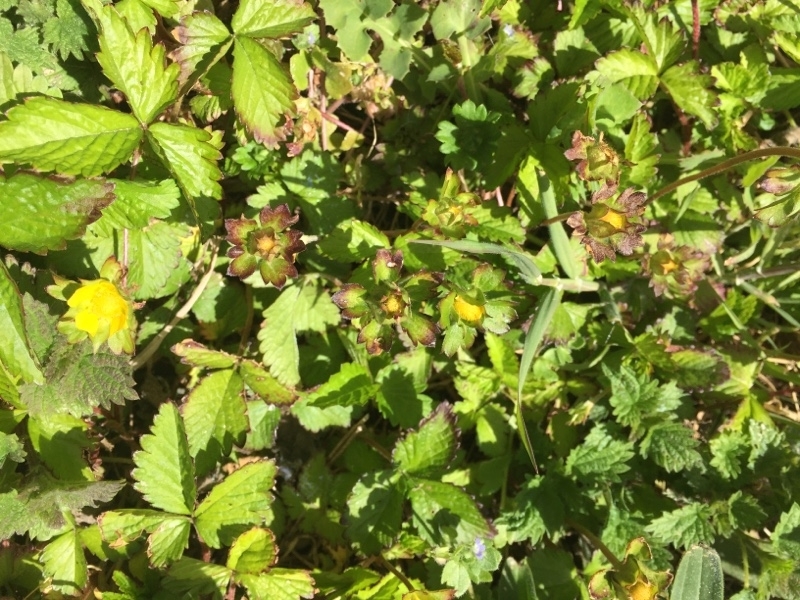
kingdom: Plantae
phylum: Tracheophyta
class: Magnoliopsida
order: Rosales
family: Rosaceae
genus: Potentilla
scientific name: Potentilla indica
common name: Yellow-flowered strawberry
